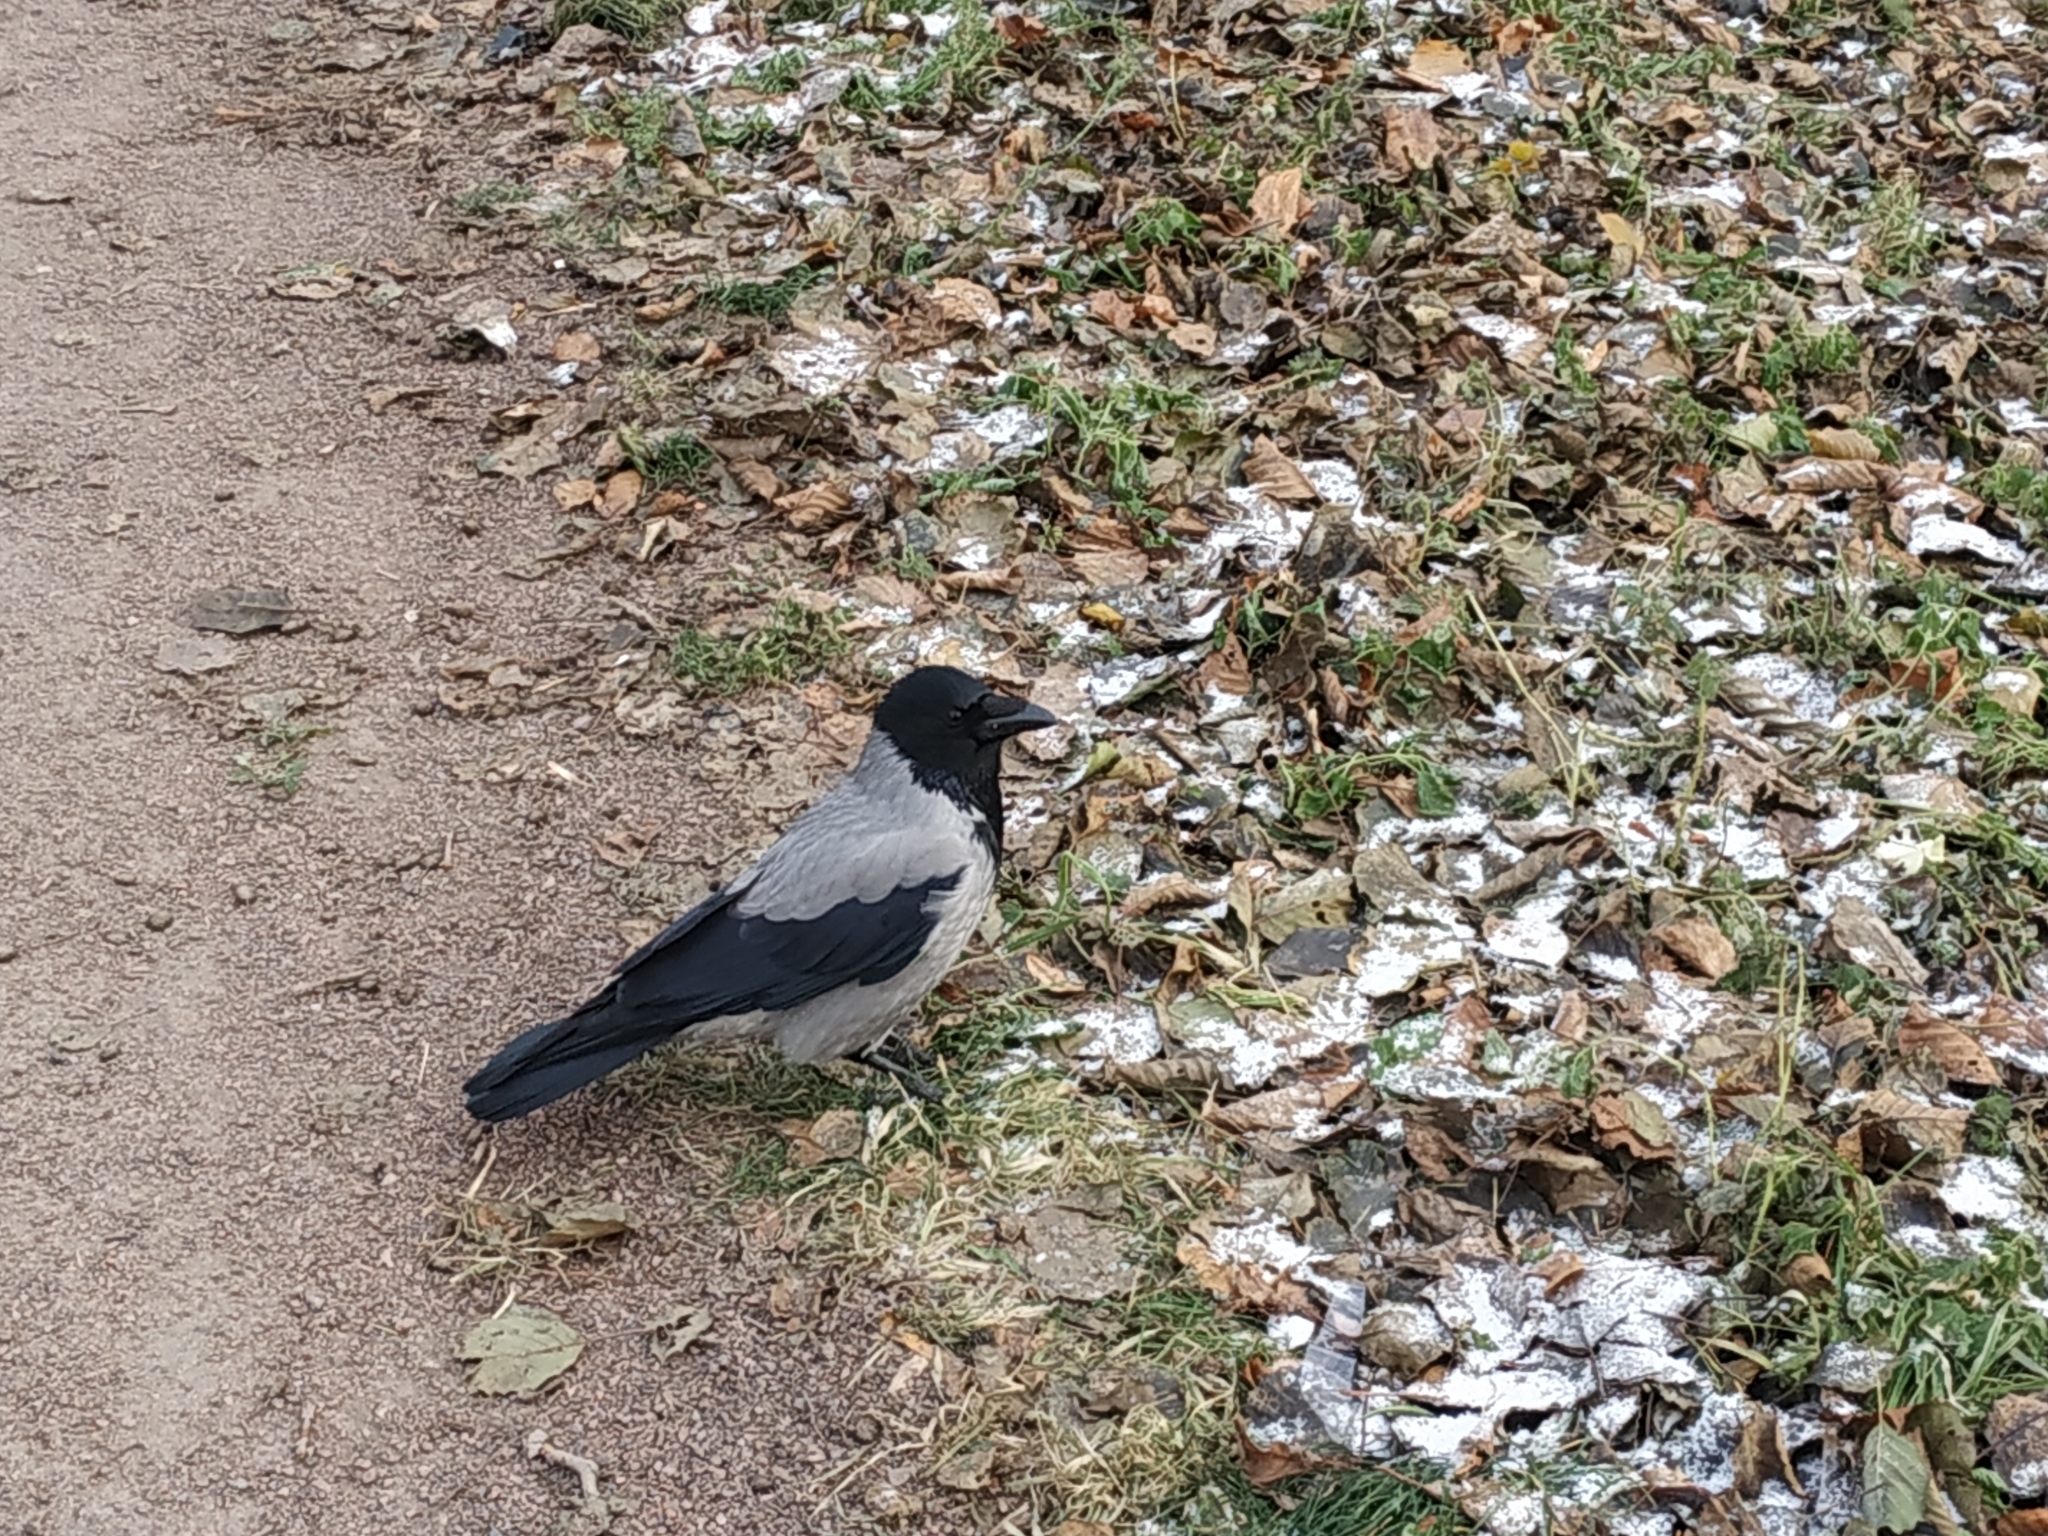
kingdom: Animalia
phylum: Chordata
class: Aves
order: Passeriformes
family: Corvidae
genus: Corvus
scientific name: Corvus cornix
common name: Hooded crow
